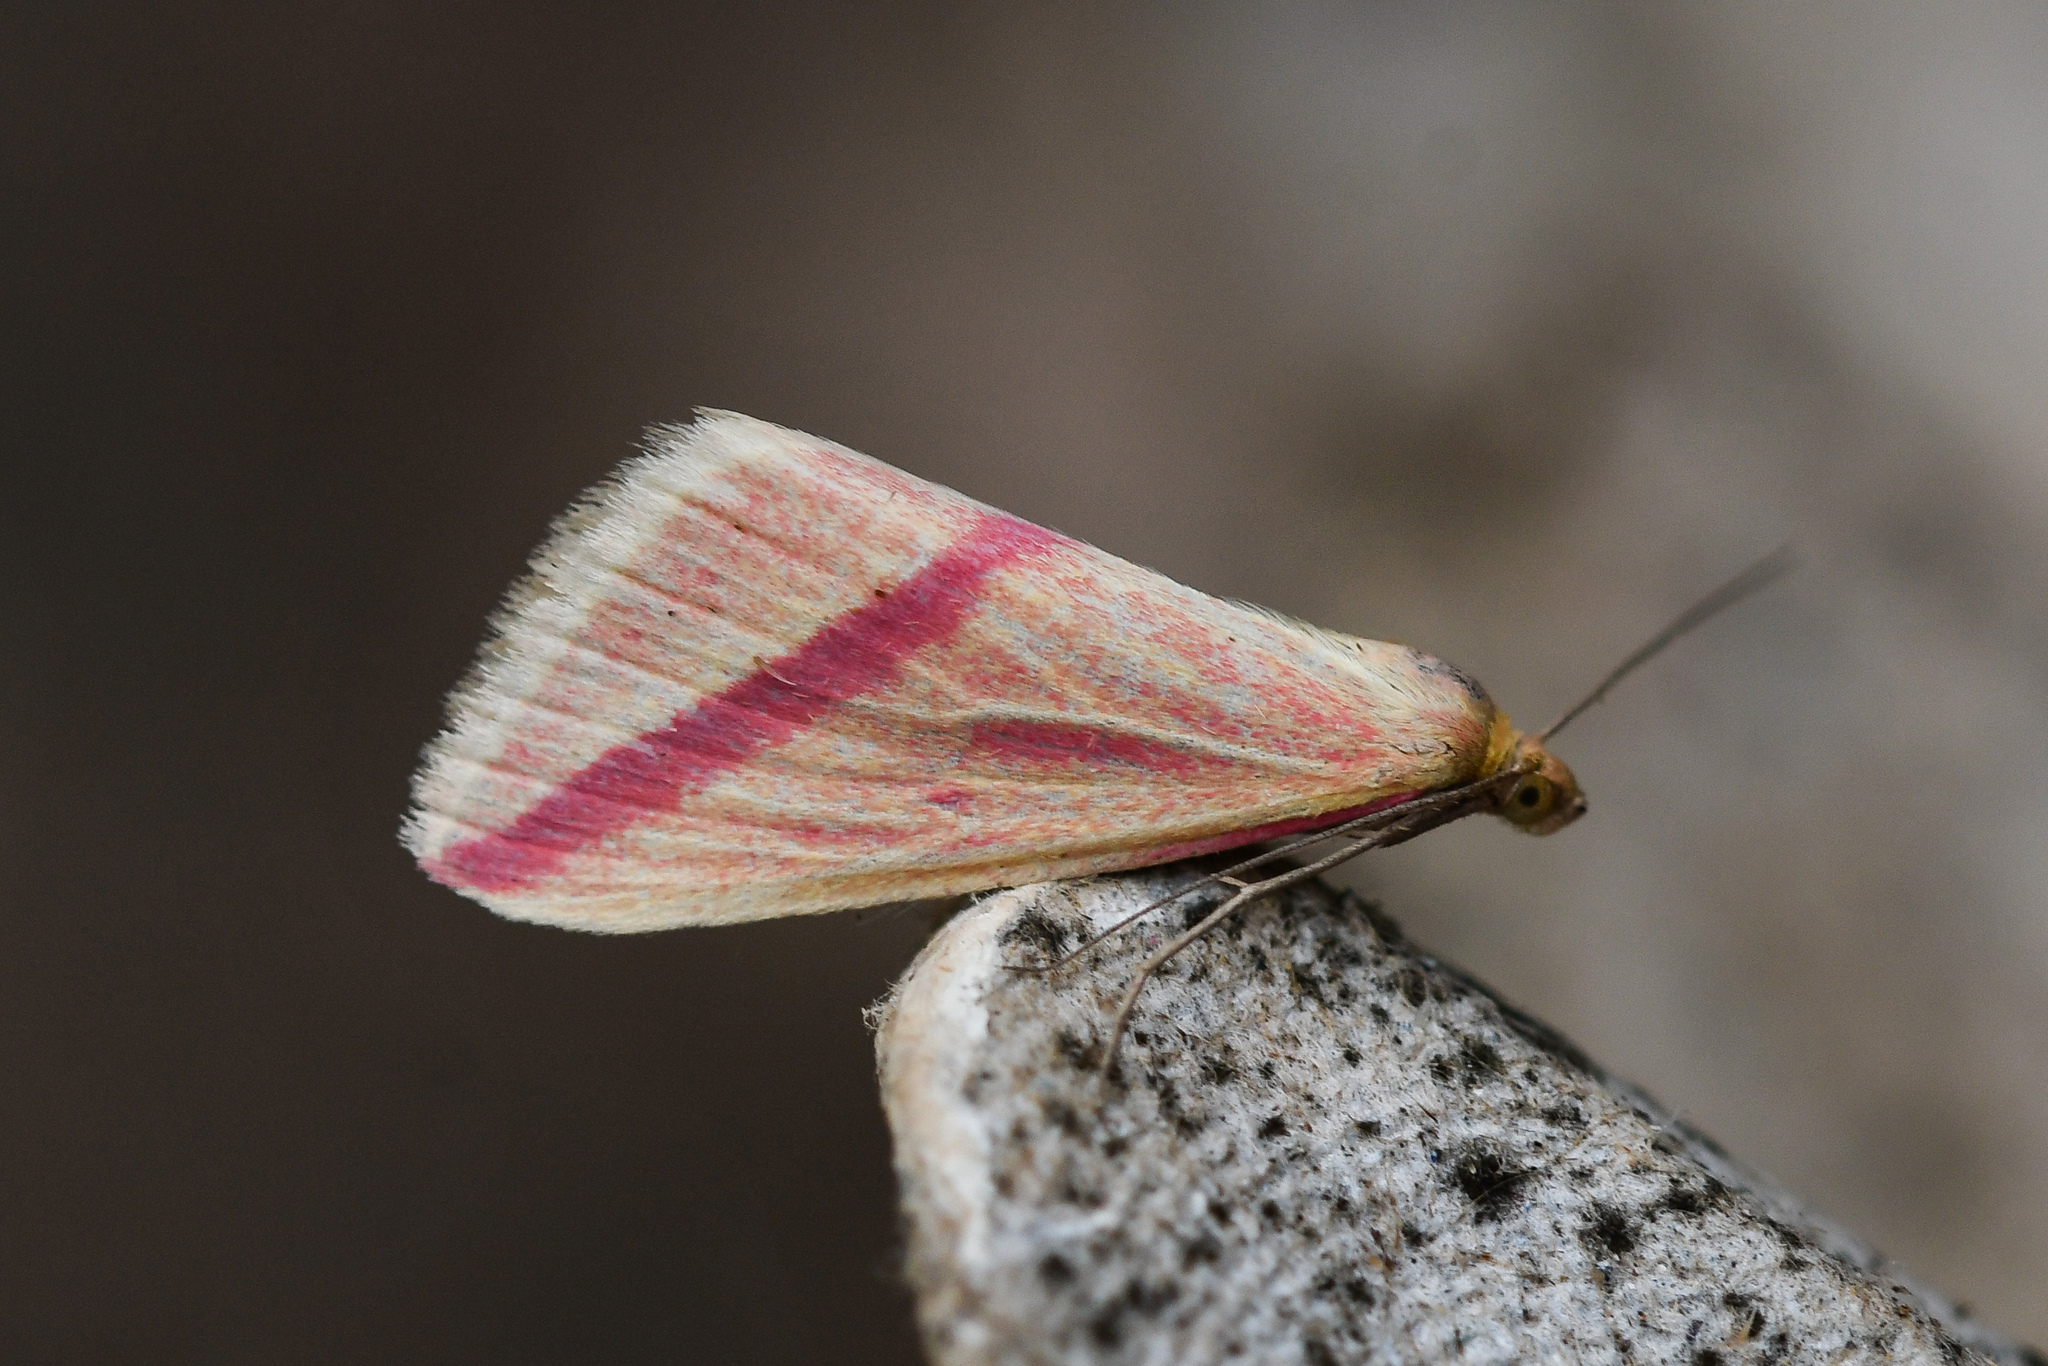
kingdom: Animalia
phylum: Arthropoda
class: Insecta
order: Lepidoptera
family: Geometridae
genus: Rhodometra
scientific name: Rhodometra sacraria
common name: Vestal
